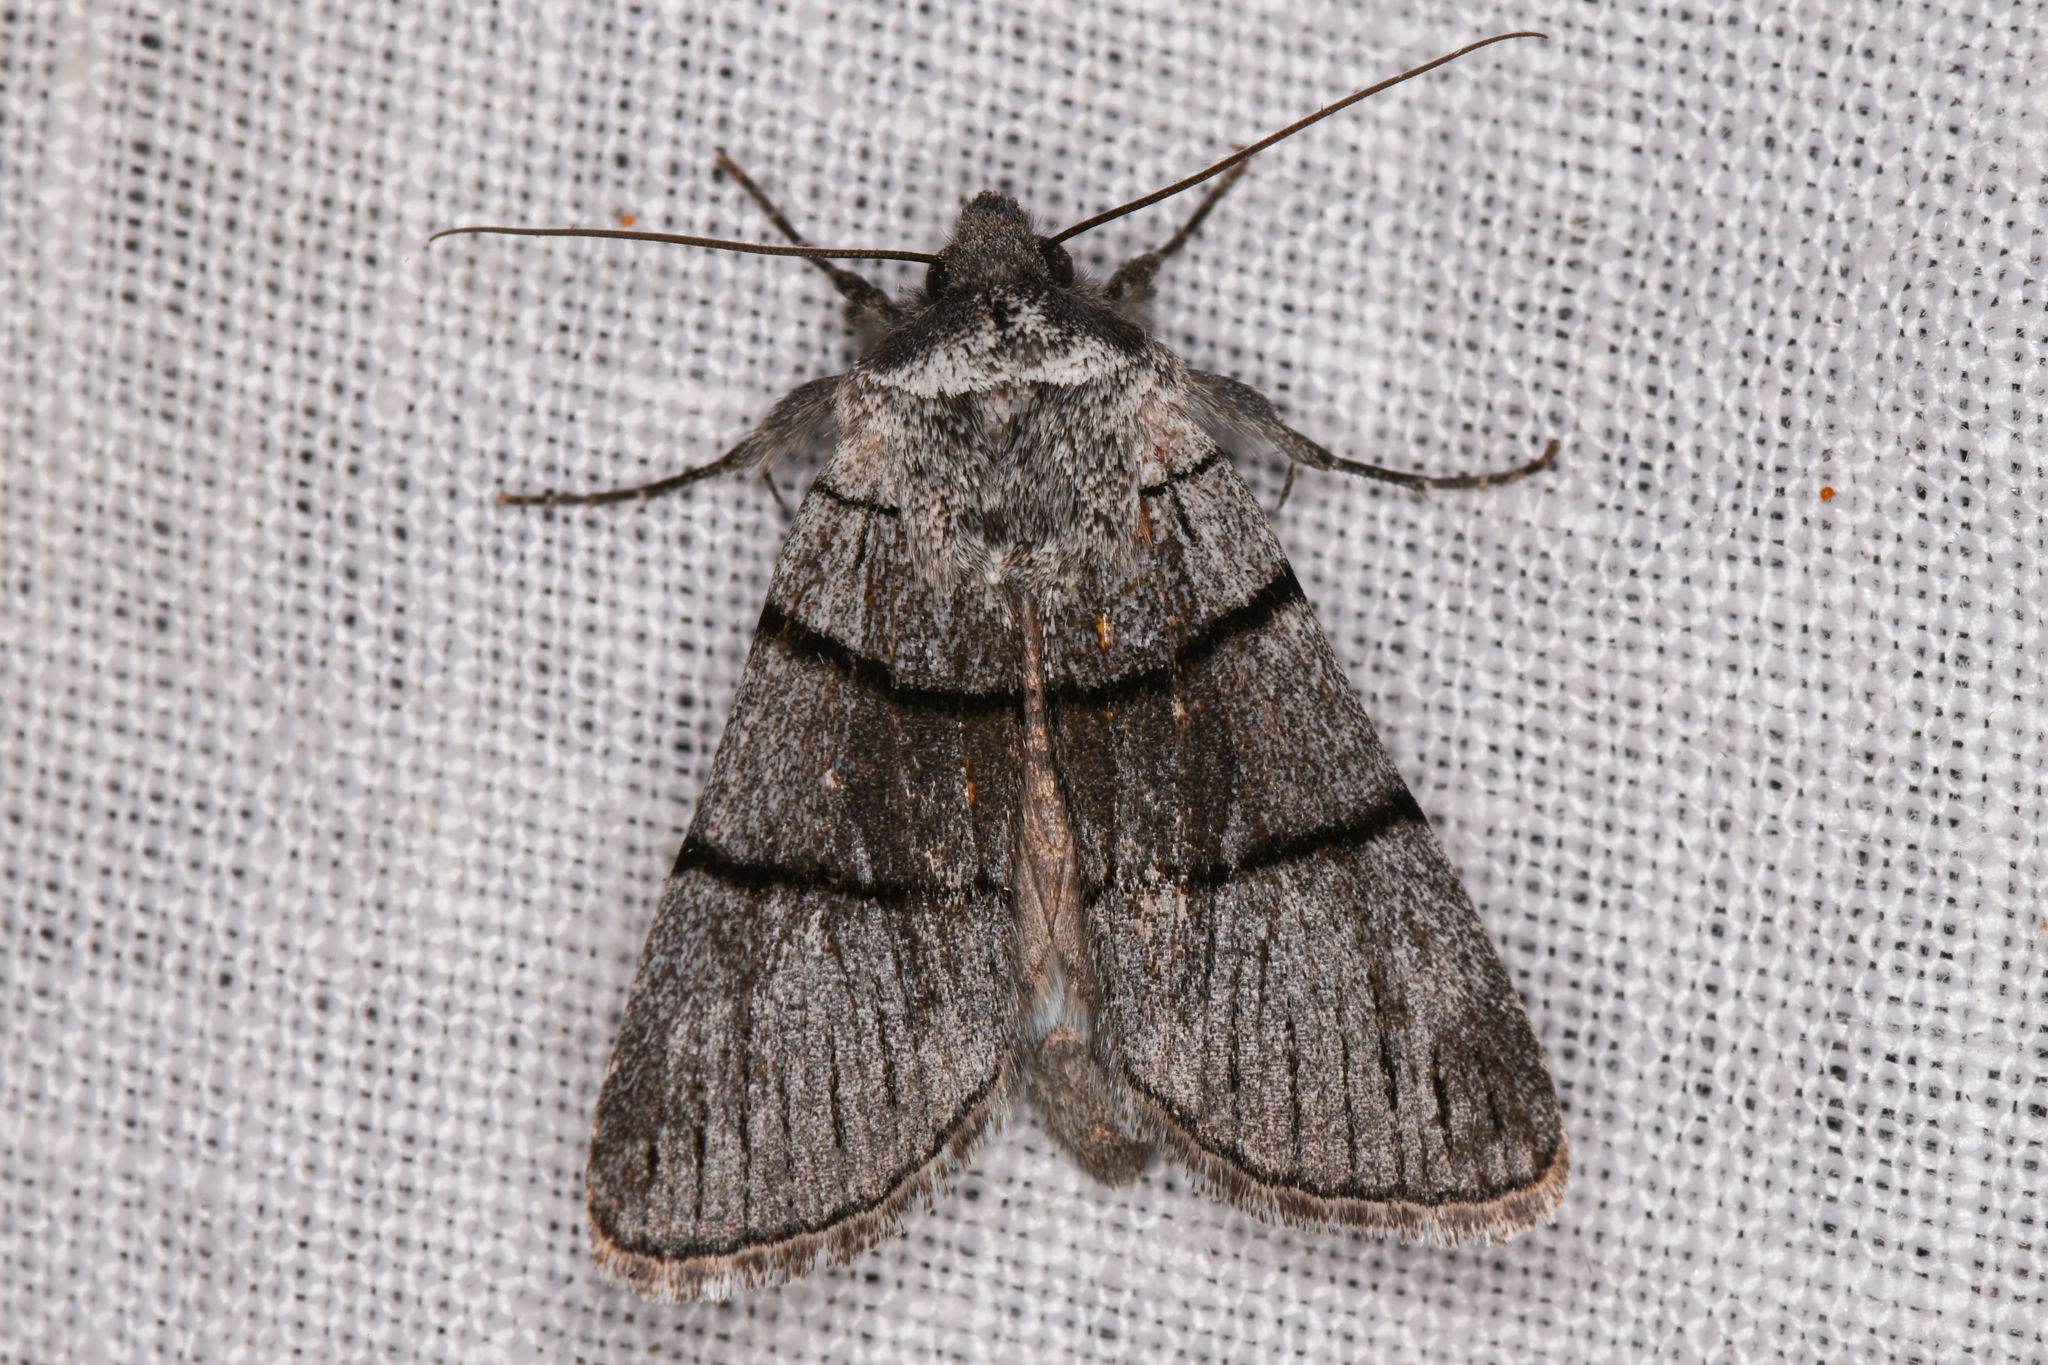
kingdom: Animalia
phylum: Arthropoda
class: Insecta
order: Lepidoptera
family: Noctuidae
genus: Sympistis
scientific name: Sympistis barnesii
